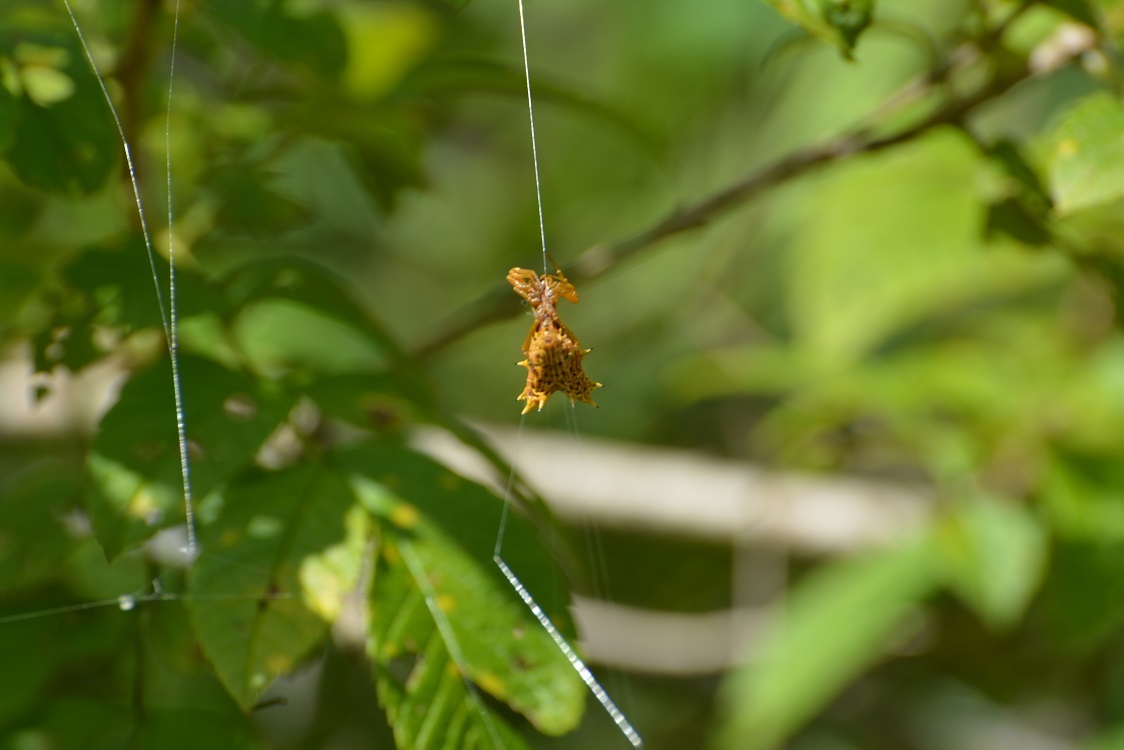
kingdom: Animalia
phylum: Arthropoda
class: Arachnida
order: Araneae
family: Araneidae
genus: Micrathena
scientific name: Micrathena gracilis
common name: Orb weavers
